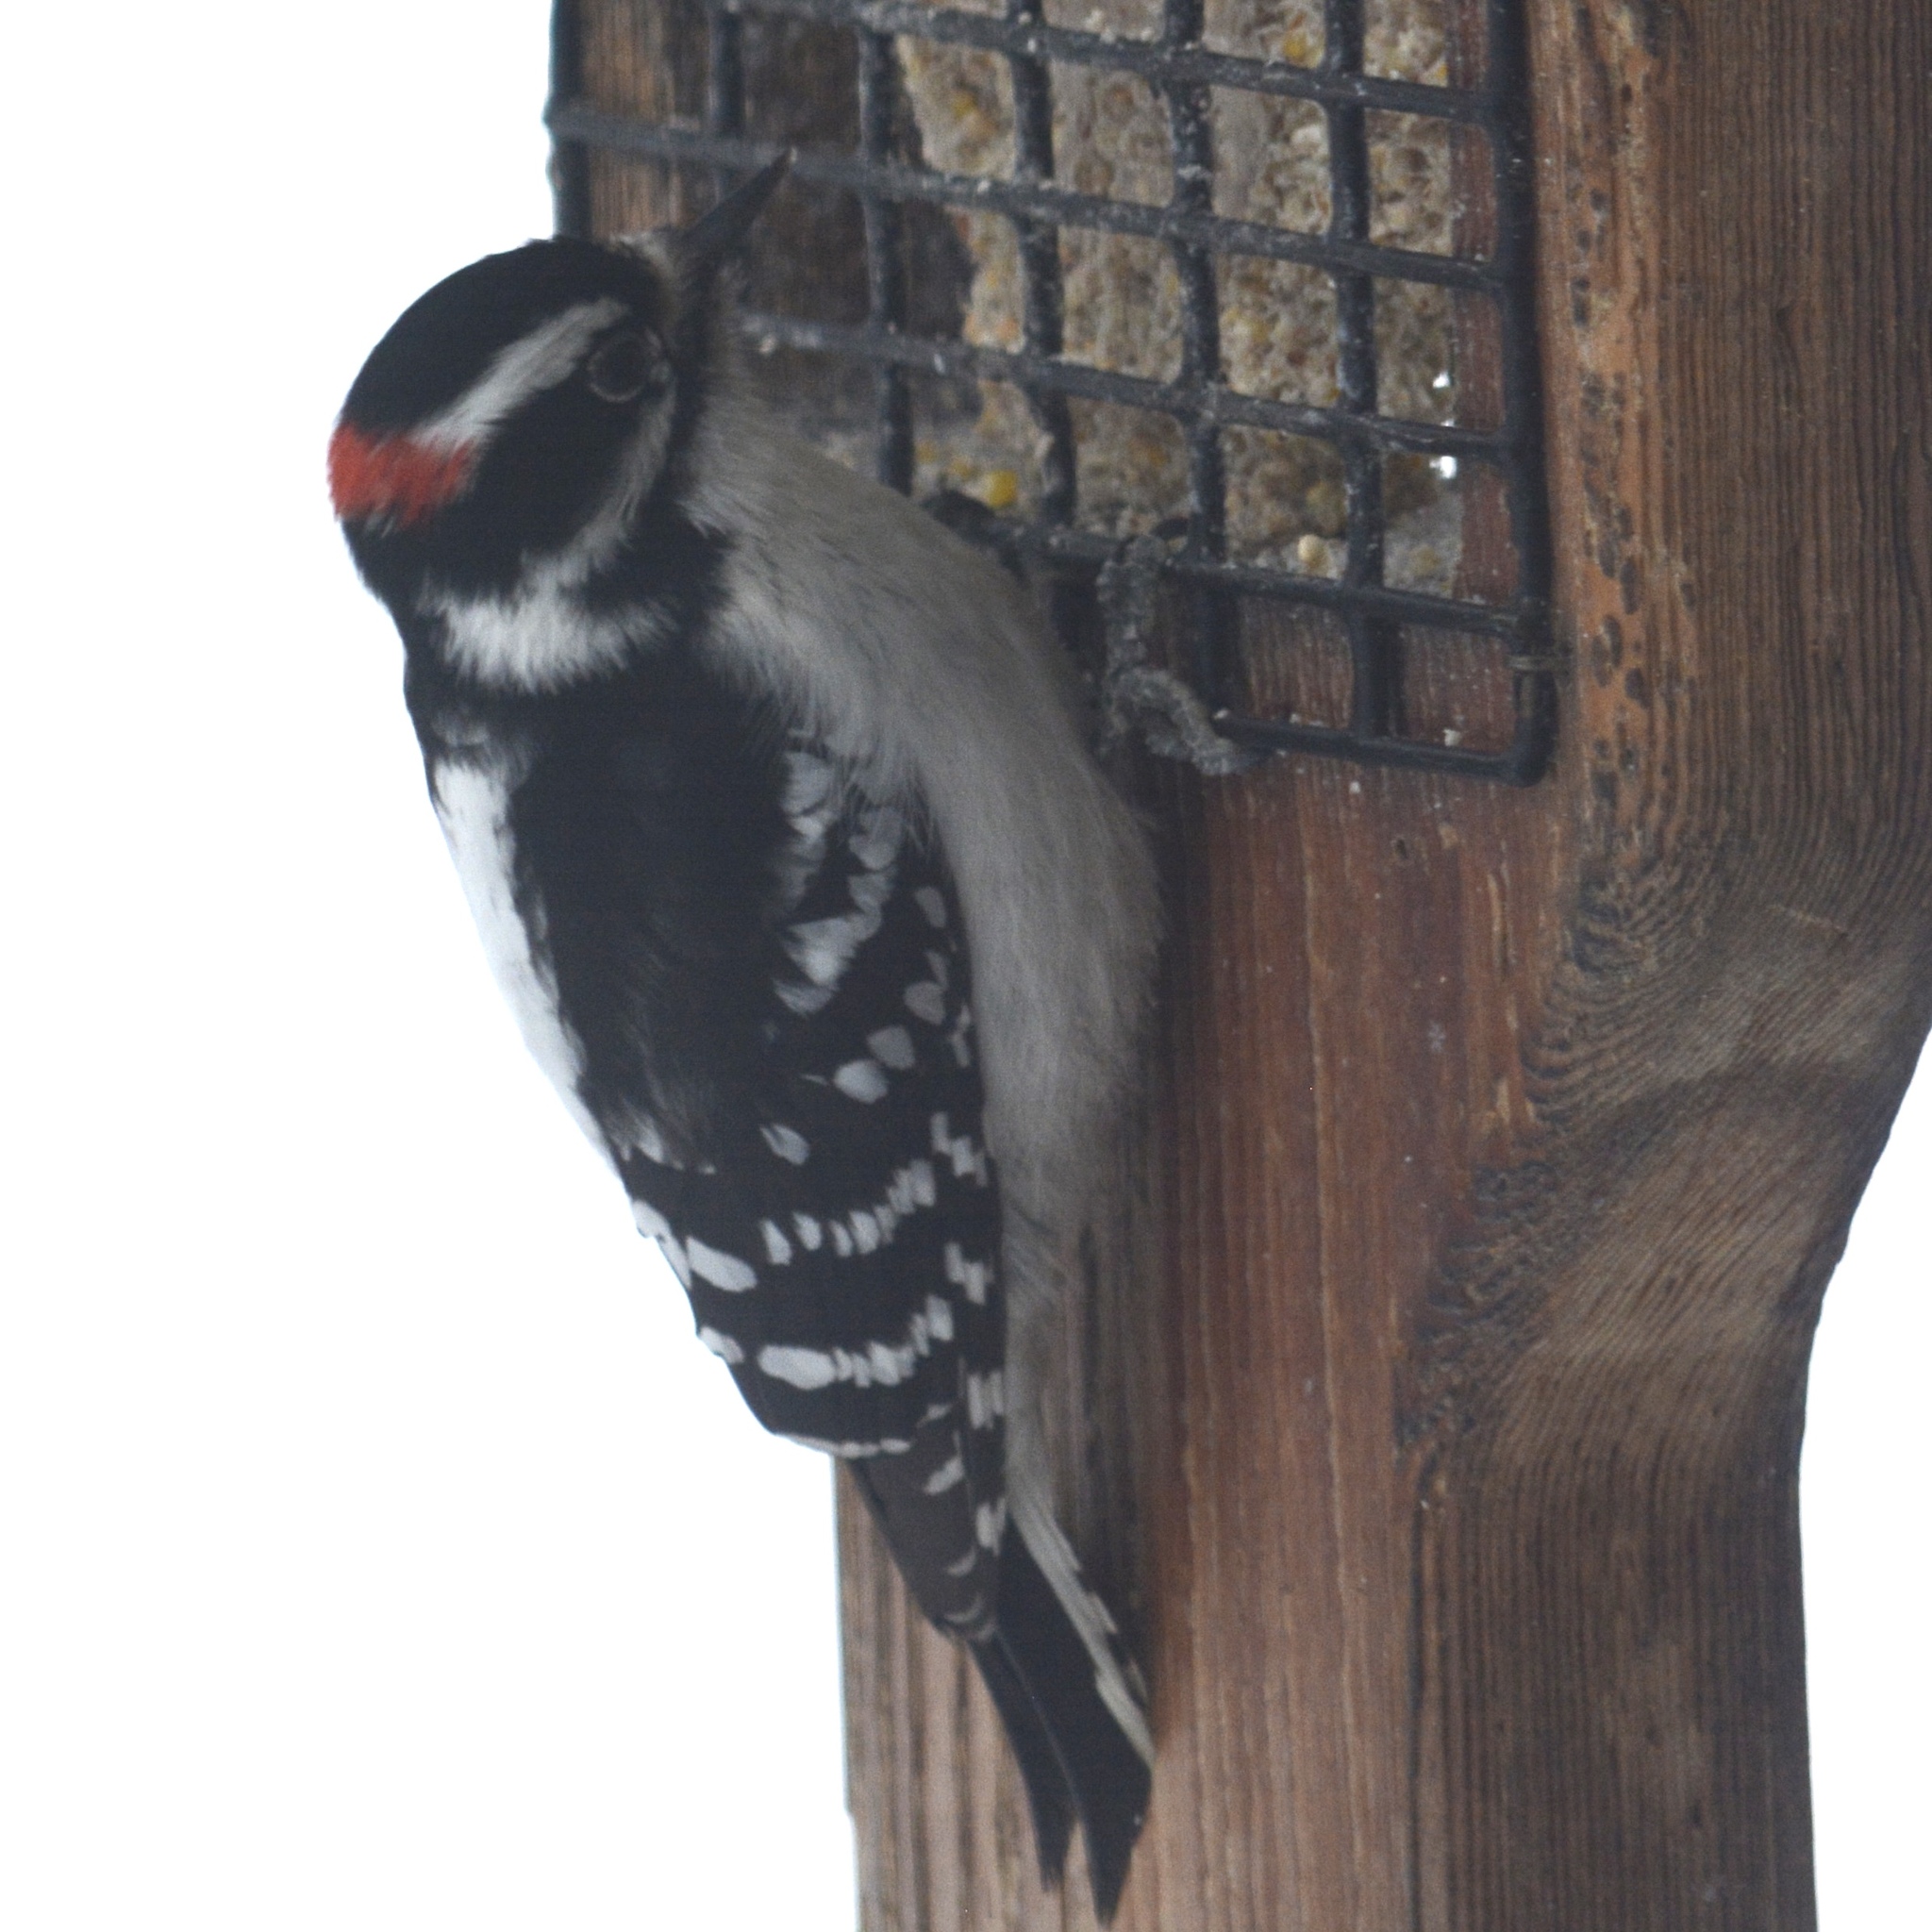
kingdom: Animalia
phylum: Chordata
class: Aves
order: Piciformes
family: Picidae
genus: Dryobates
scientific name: Dryobates pubescens
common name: Downy woodpecker
